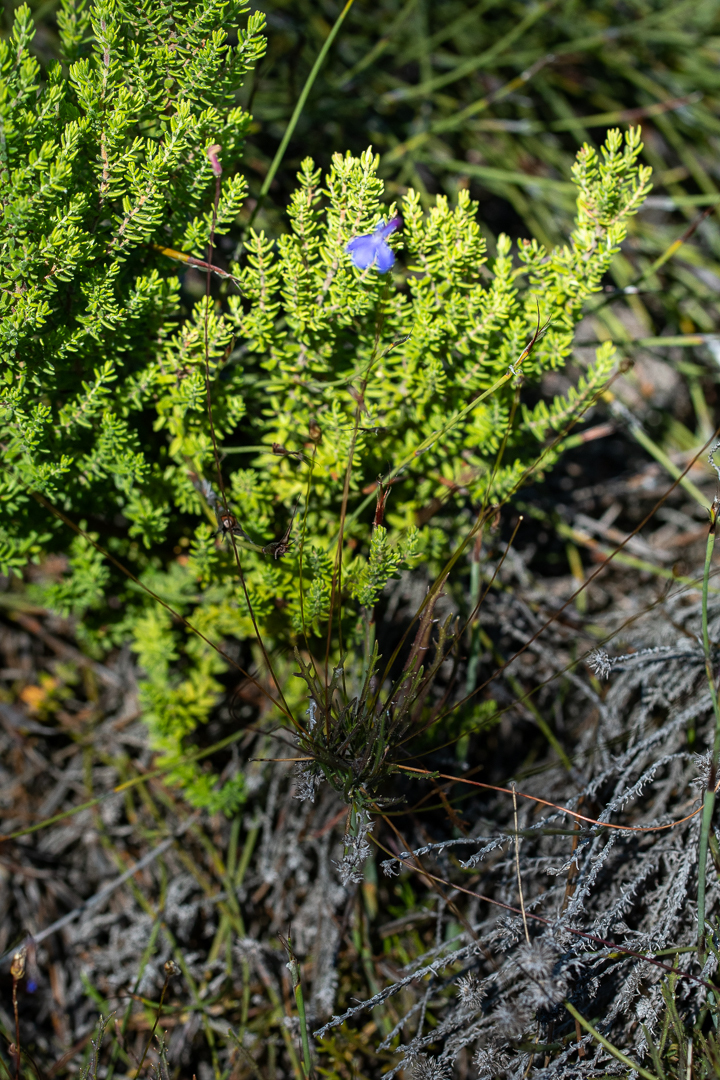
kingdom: Plantae
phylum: Tracheophyta
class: Magnoliopsida
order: Asterales
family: Campanulaceae
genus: Lobelia
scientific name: Lobelia chamaepitys
